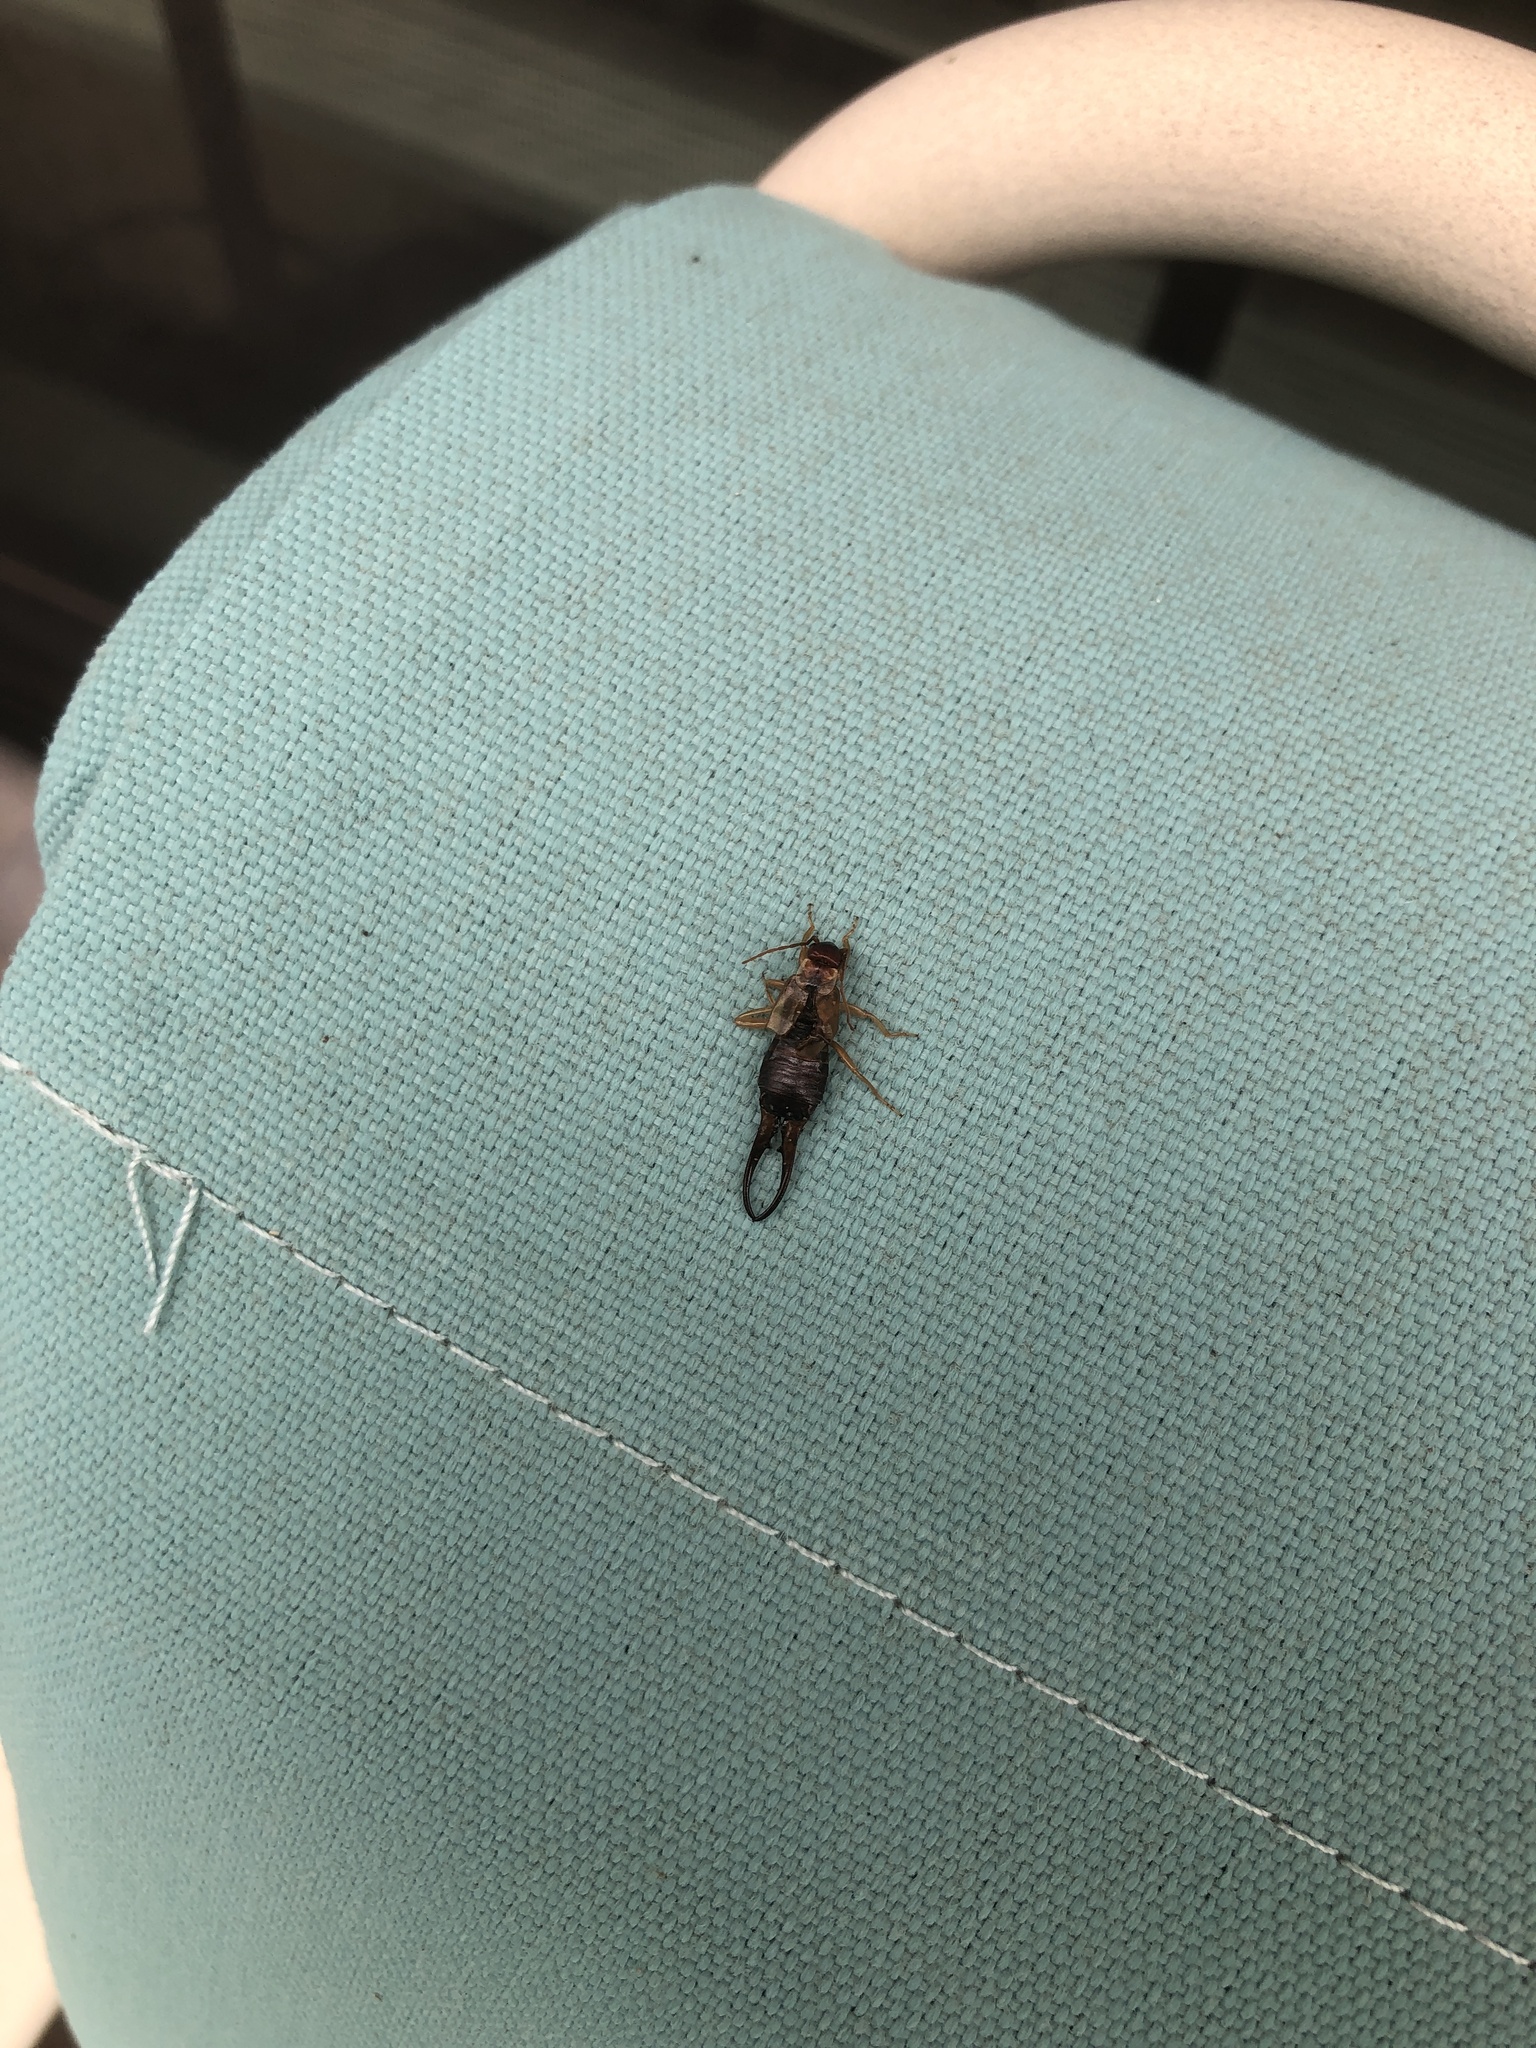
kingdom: Animalia
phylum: Arthropoda
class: Insecta
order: Dermaptera
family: Forficulidae
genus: Forficula
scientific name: Forficula
